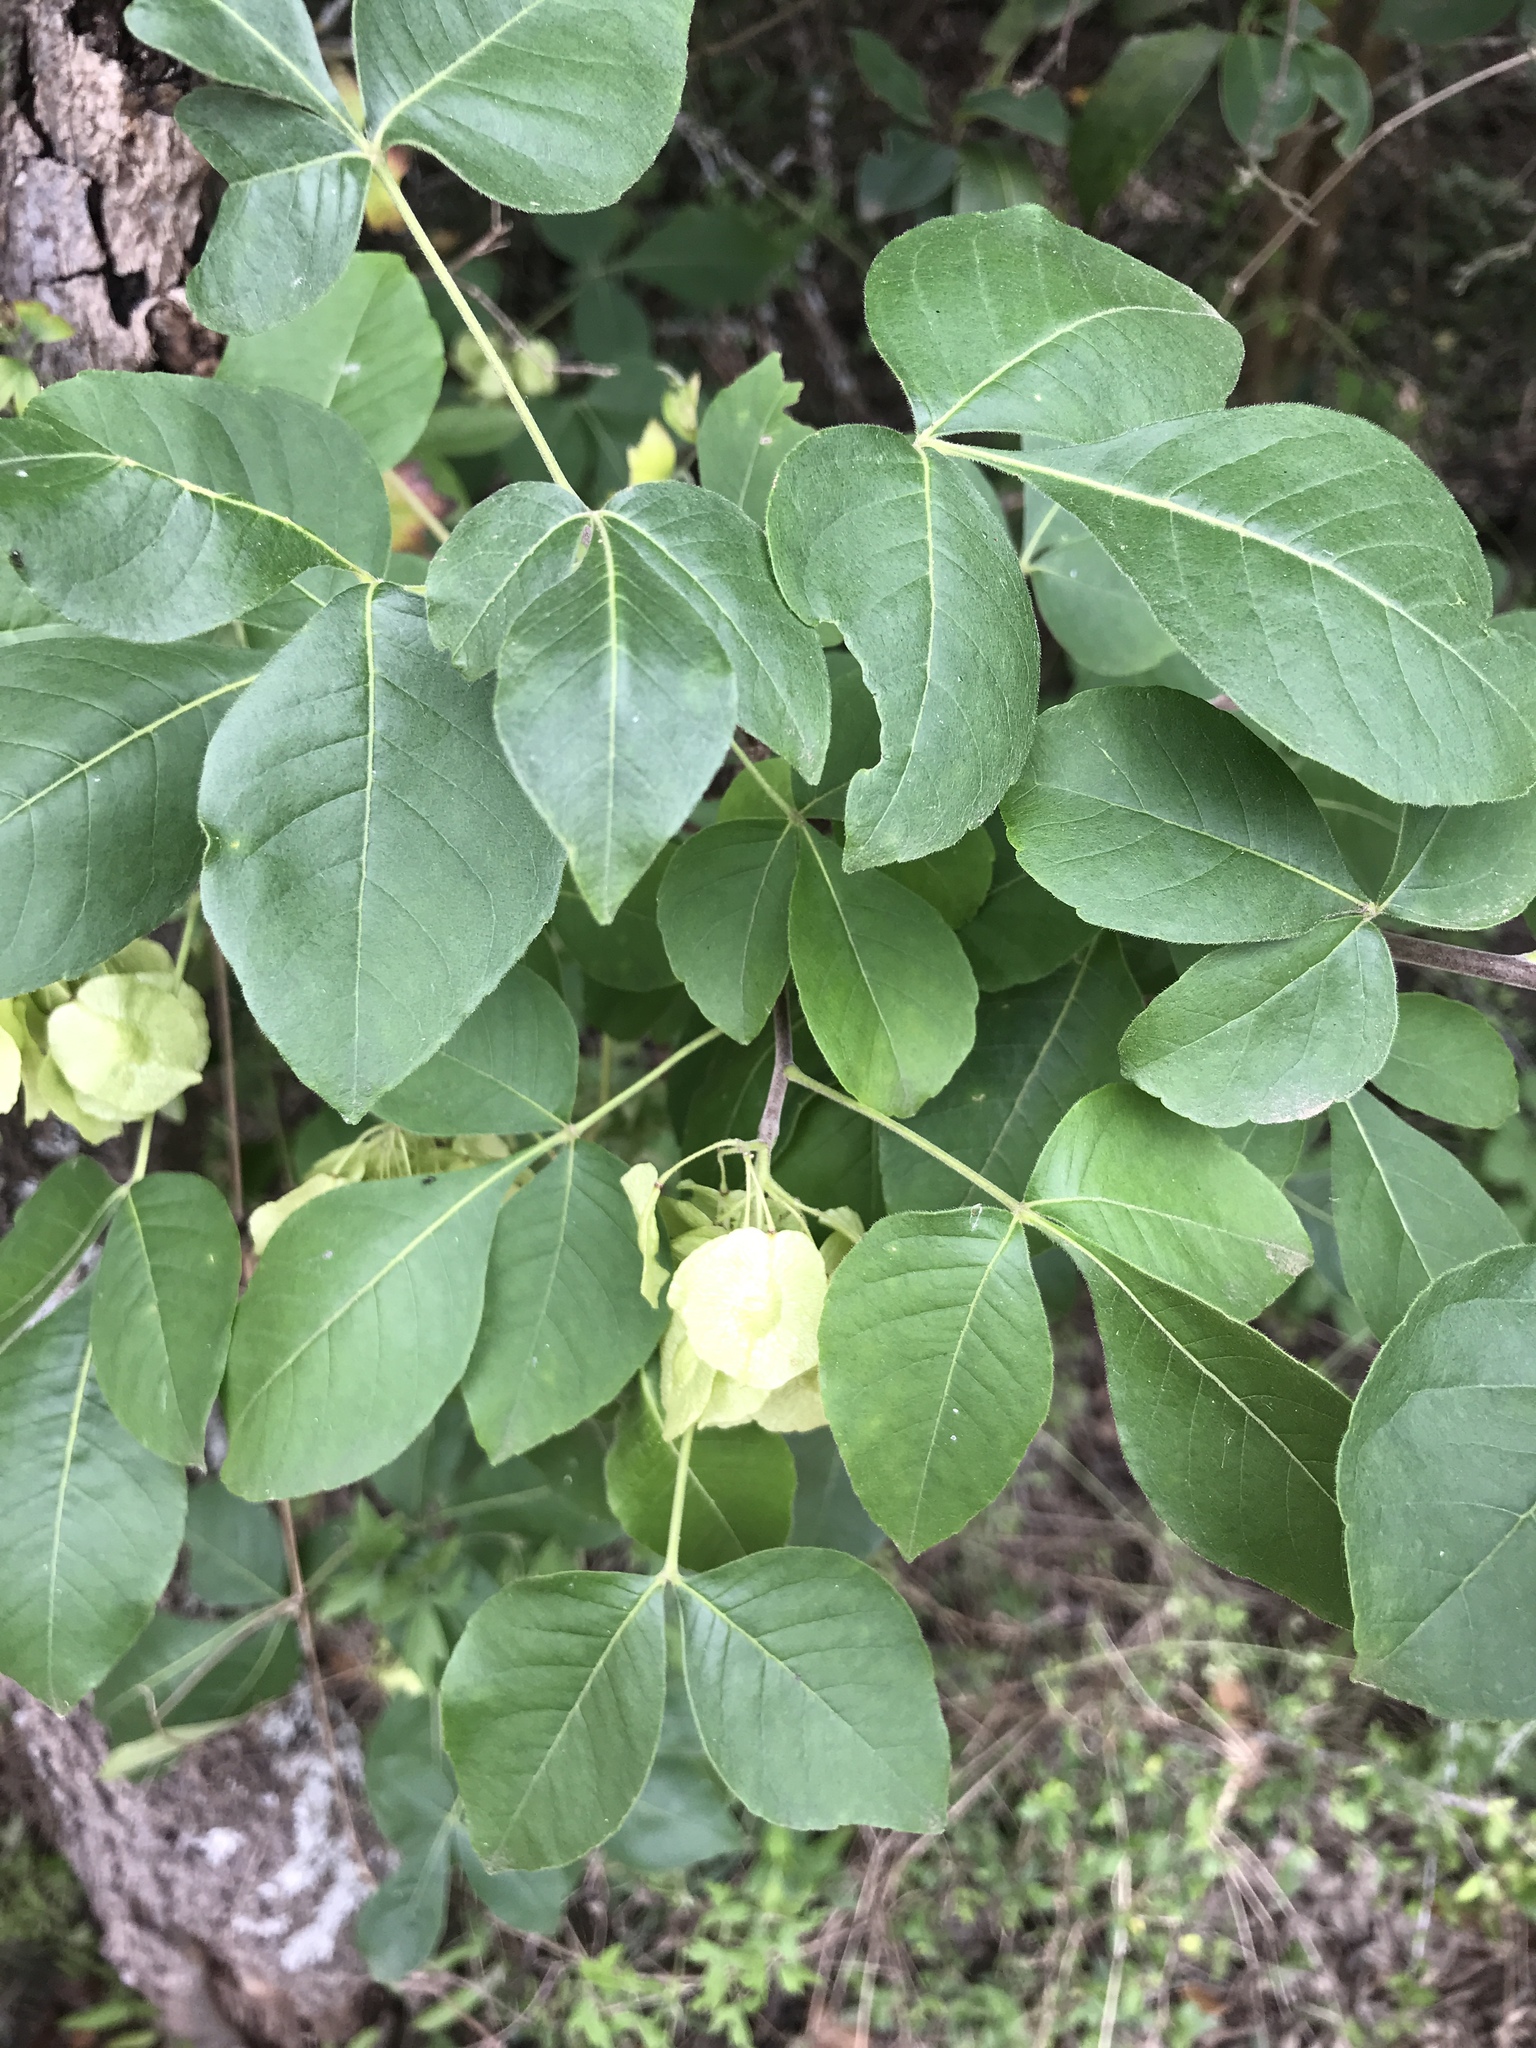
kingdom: Plantae
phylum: Tracheophyta
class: Magnoliopsida
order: Sapindales
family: Rutaceae
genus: Ptelea
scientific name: Ptelea trifoliata
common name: Common hop-tree
